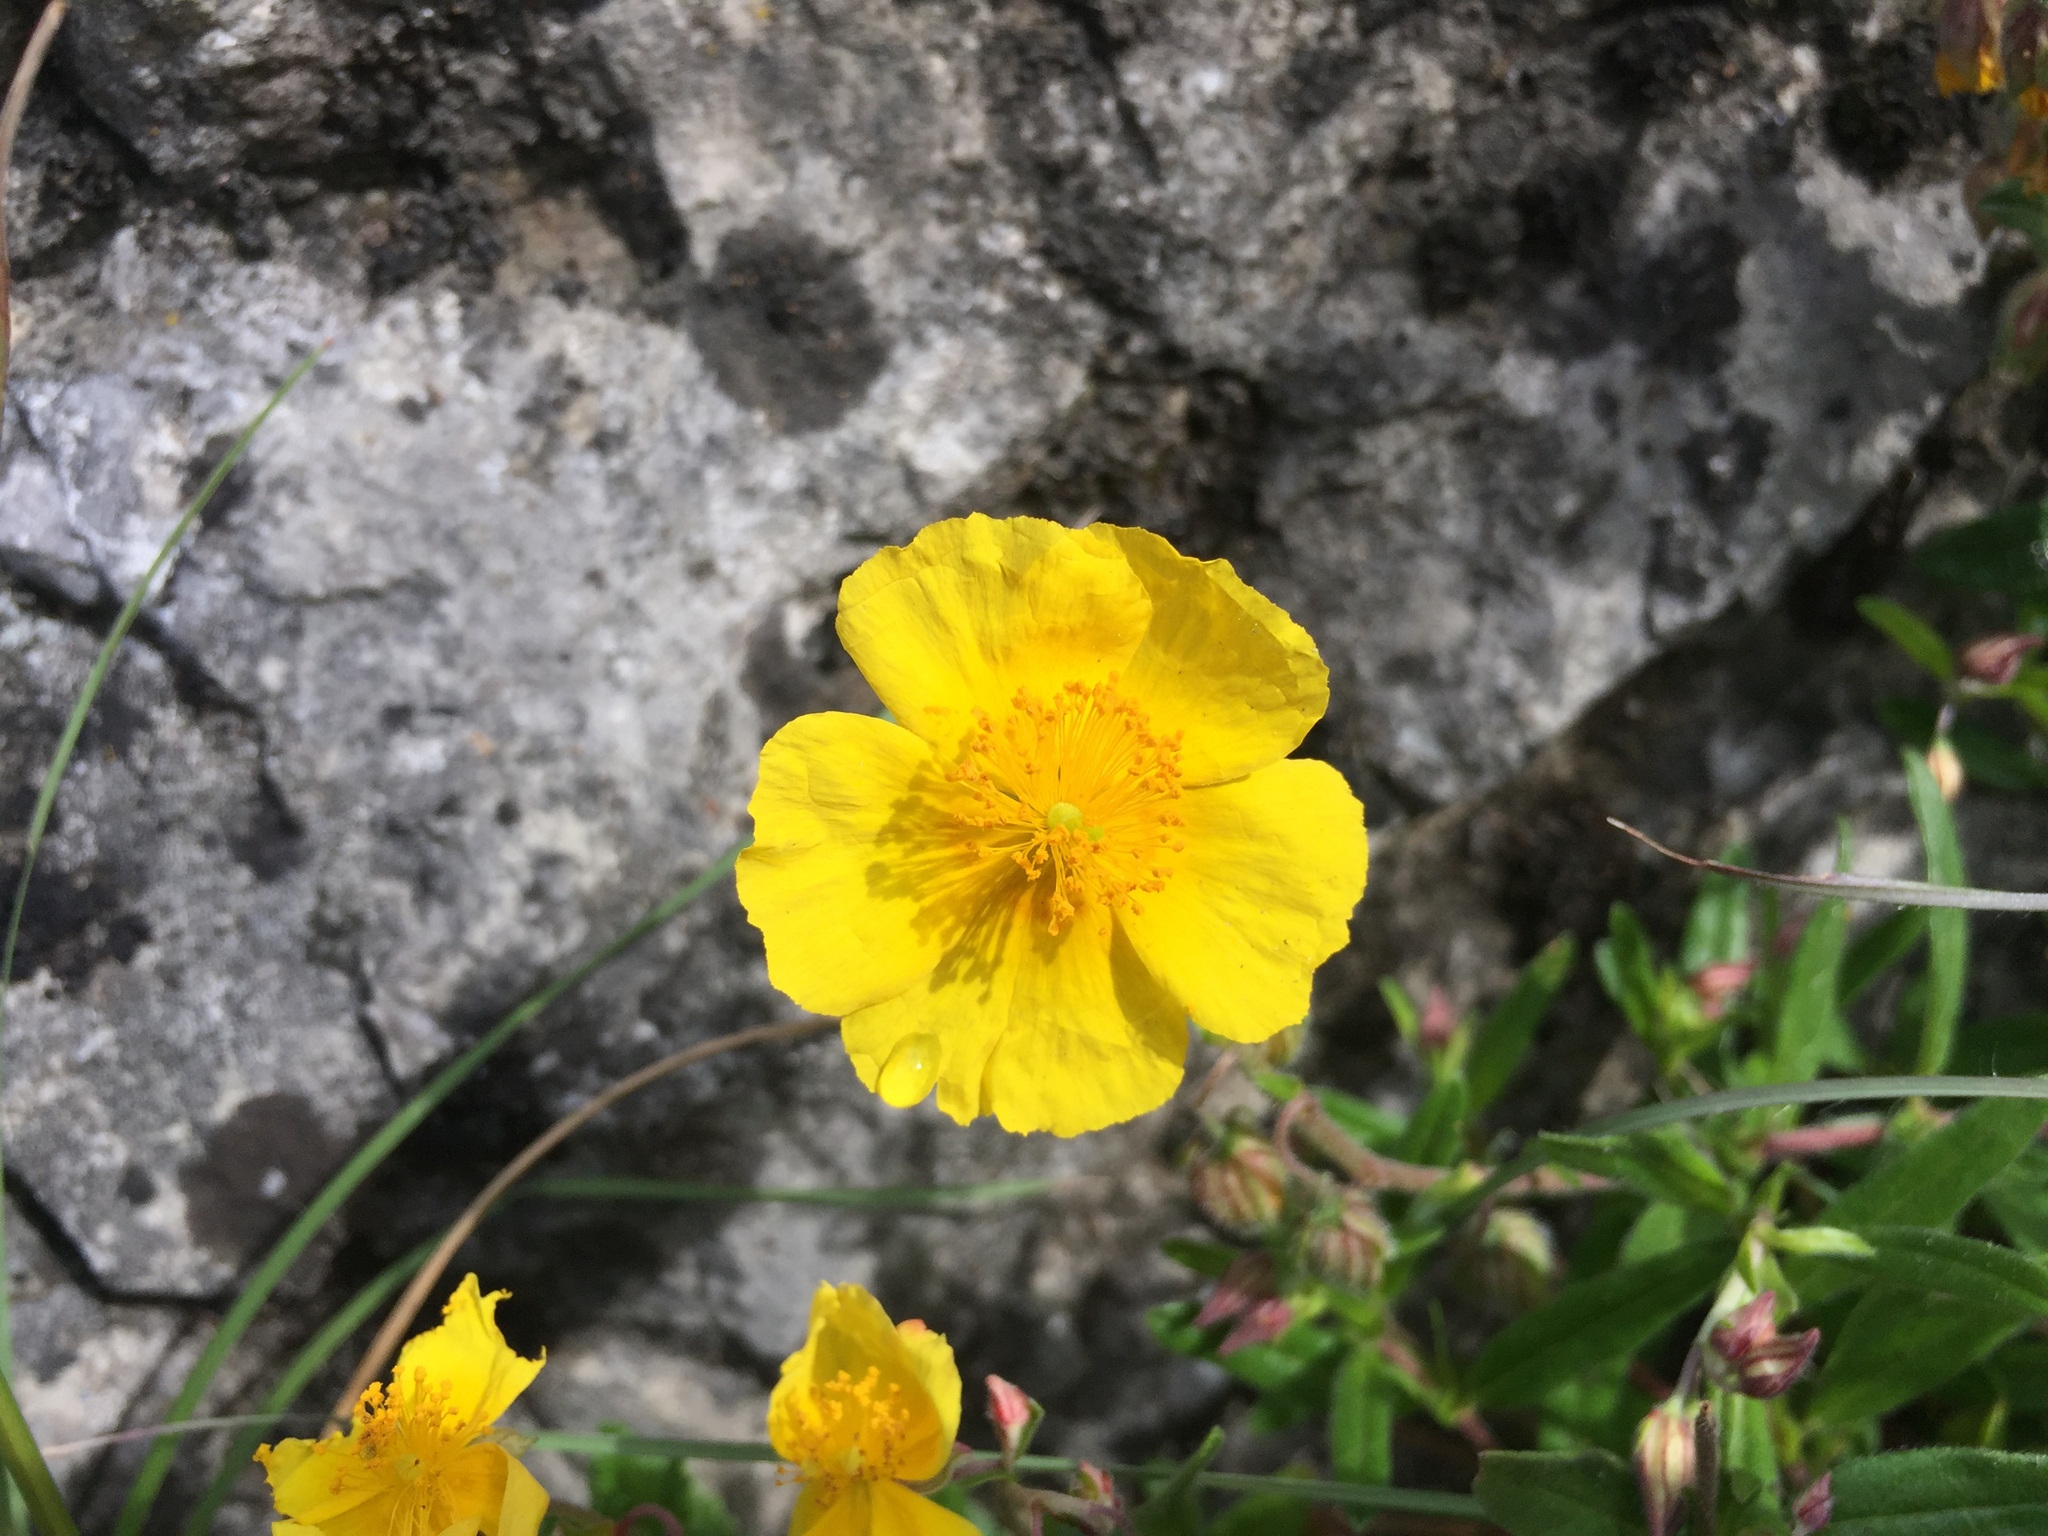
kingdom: Plantae
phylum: Tracheophyta
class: Magnoliopsida
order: Malvales
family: Cistaceae
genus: Helianthemum
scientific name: Helianthemum nummularium
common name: Common rock-rose
